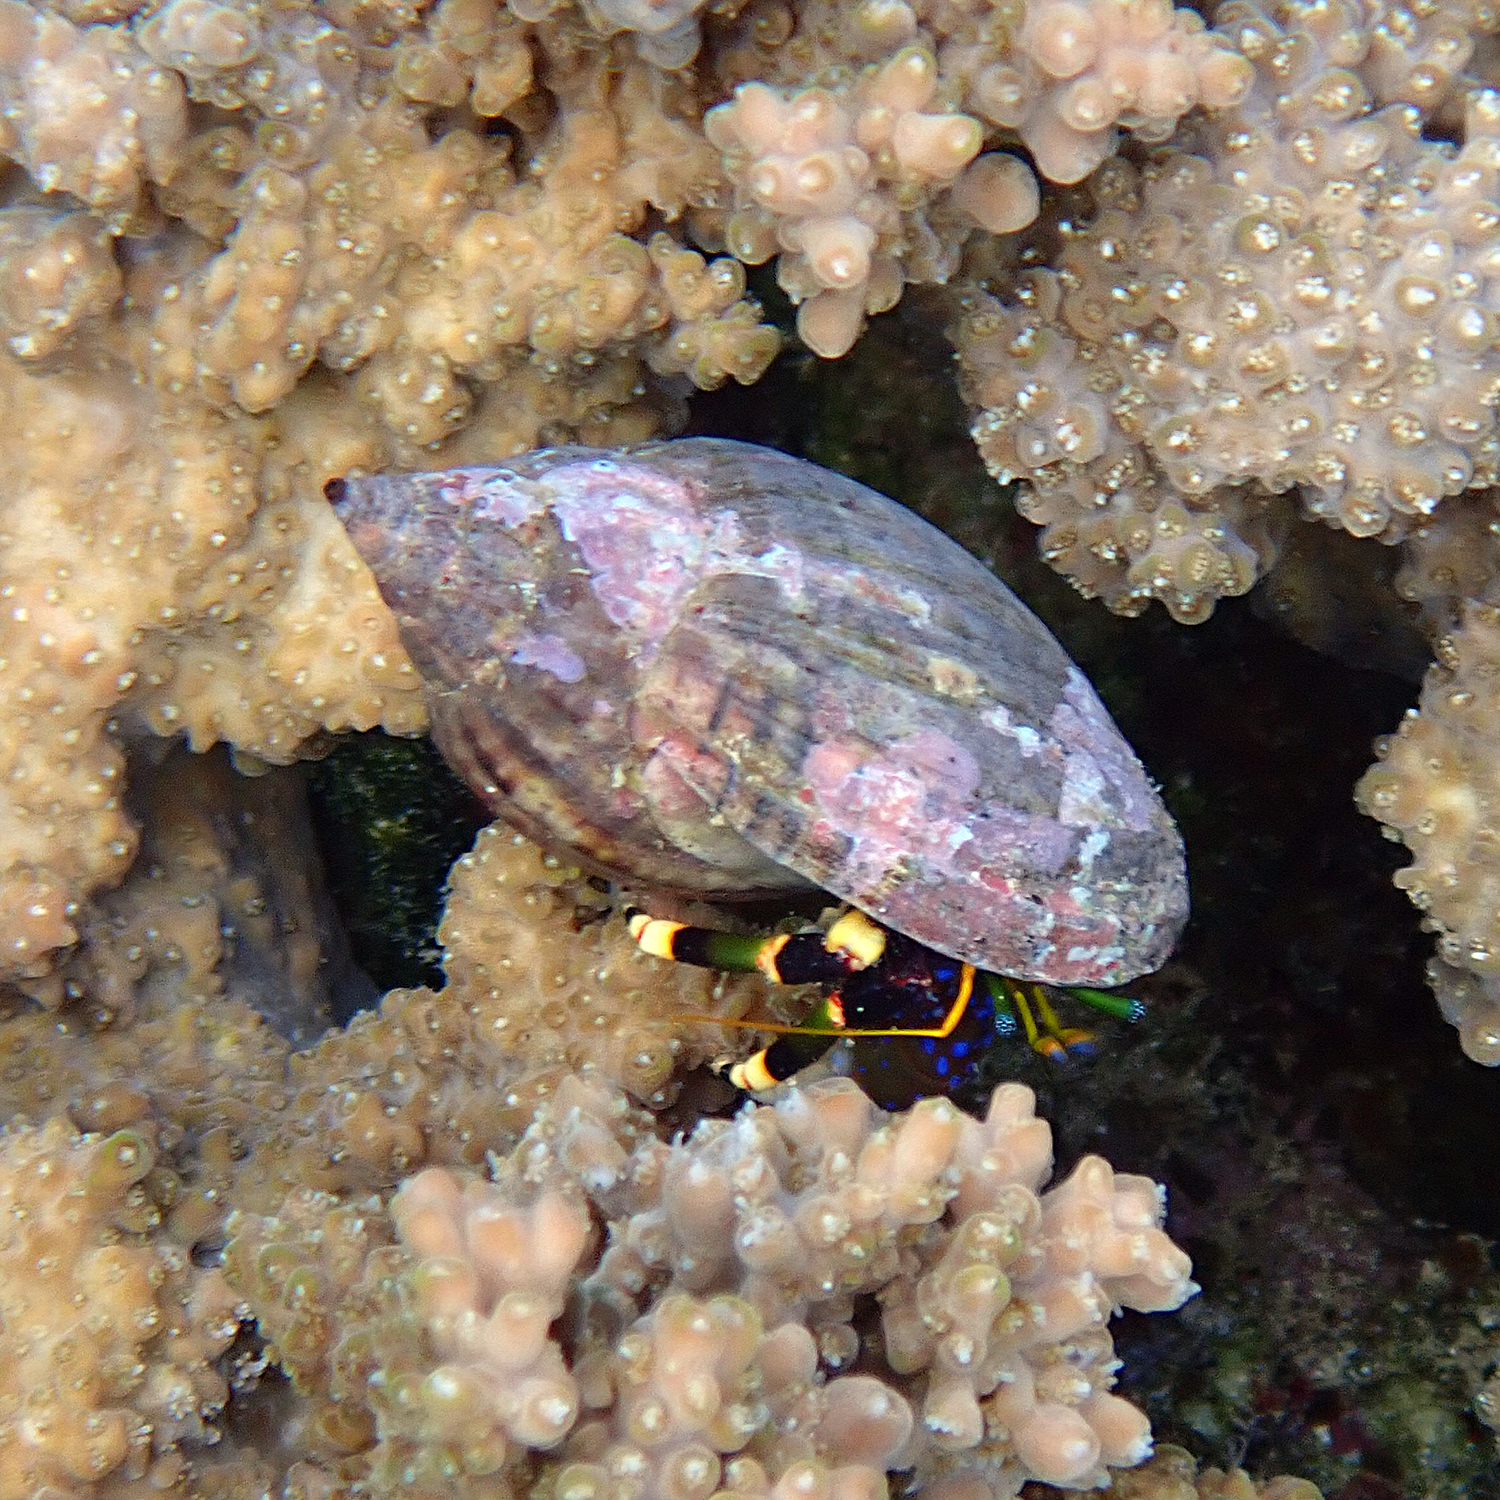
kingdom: Animalia
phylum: Arthropoda
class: Malacostraca
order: Decapoda
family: Diogenidae
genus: Calcinus
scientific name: Calcinus imperialis
